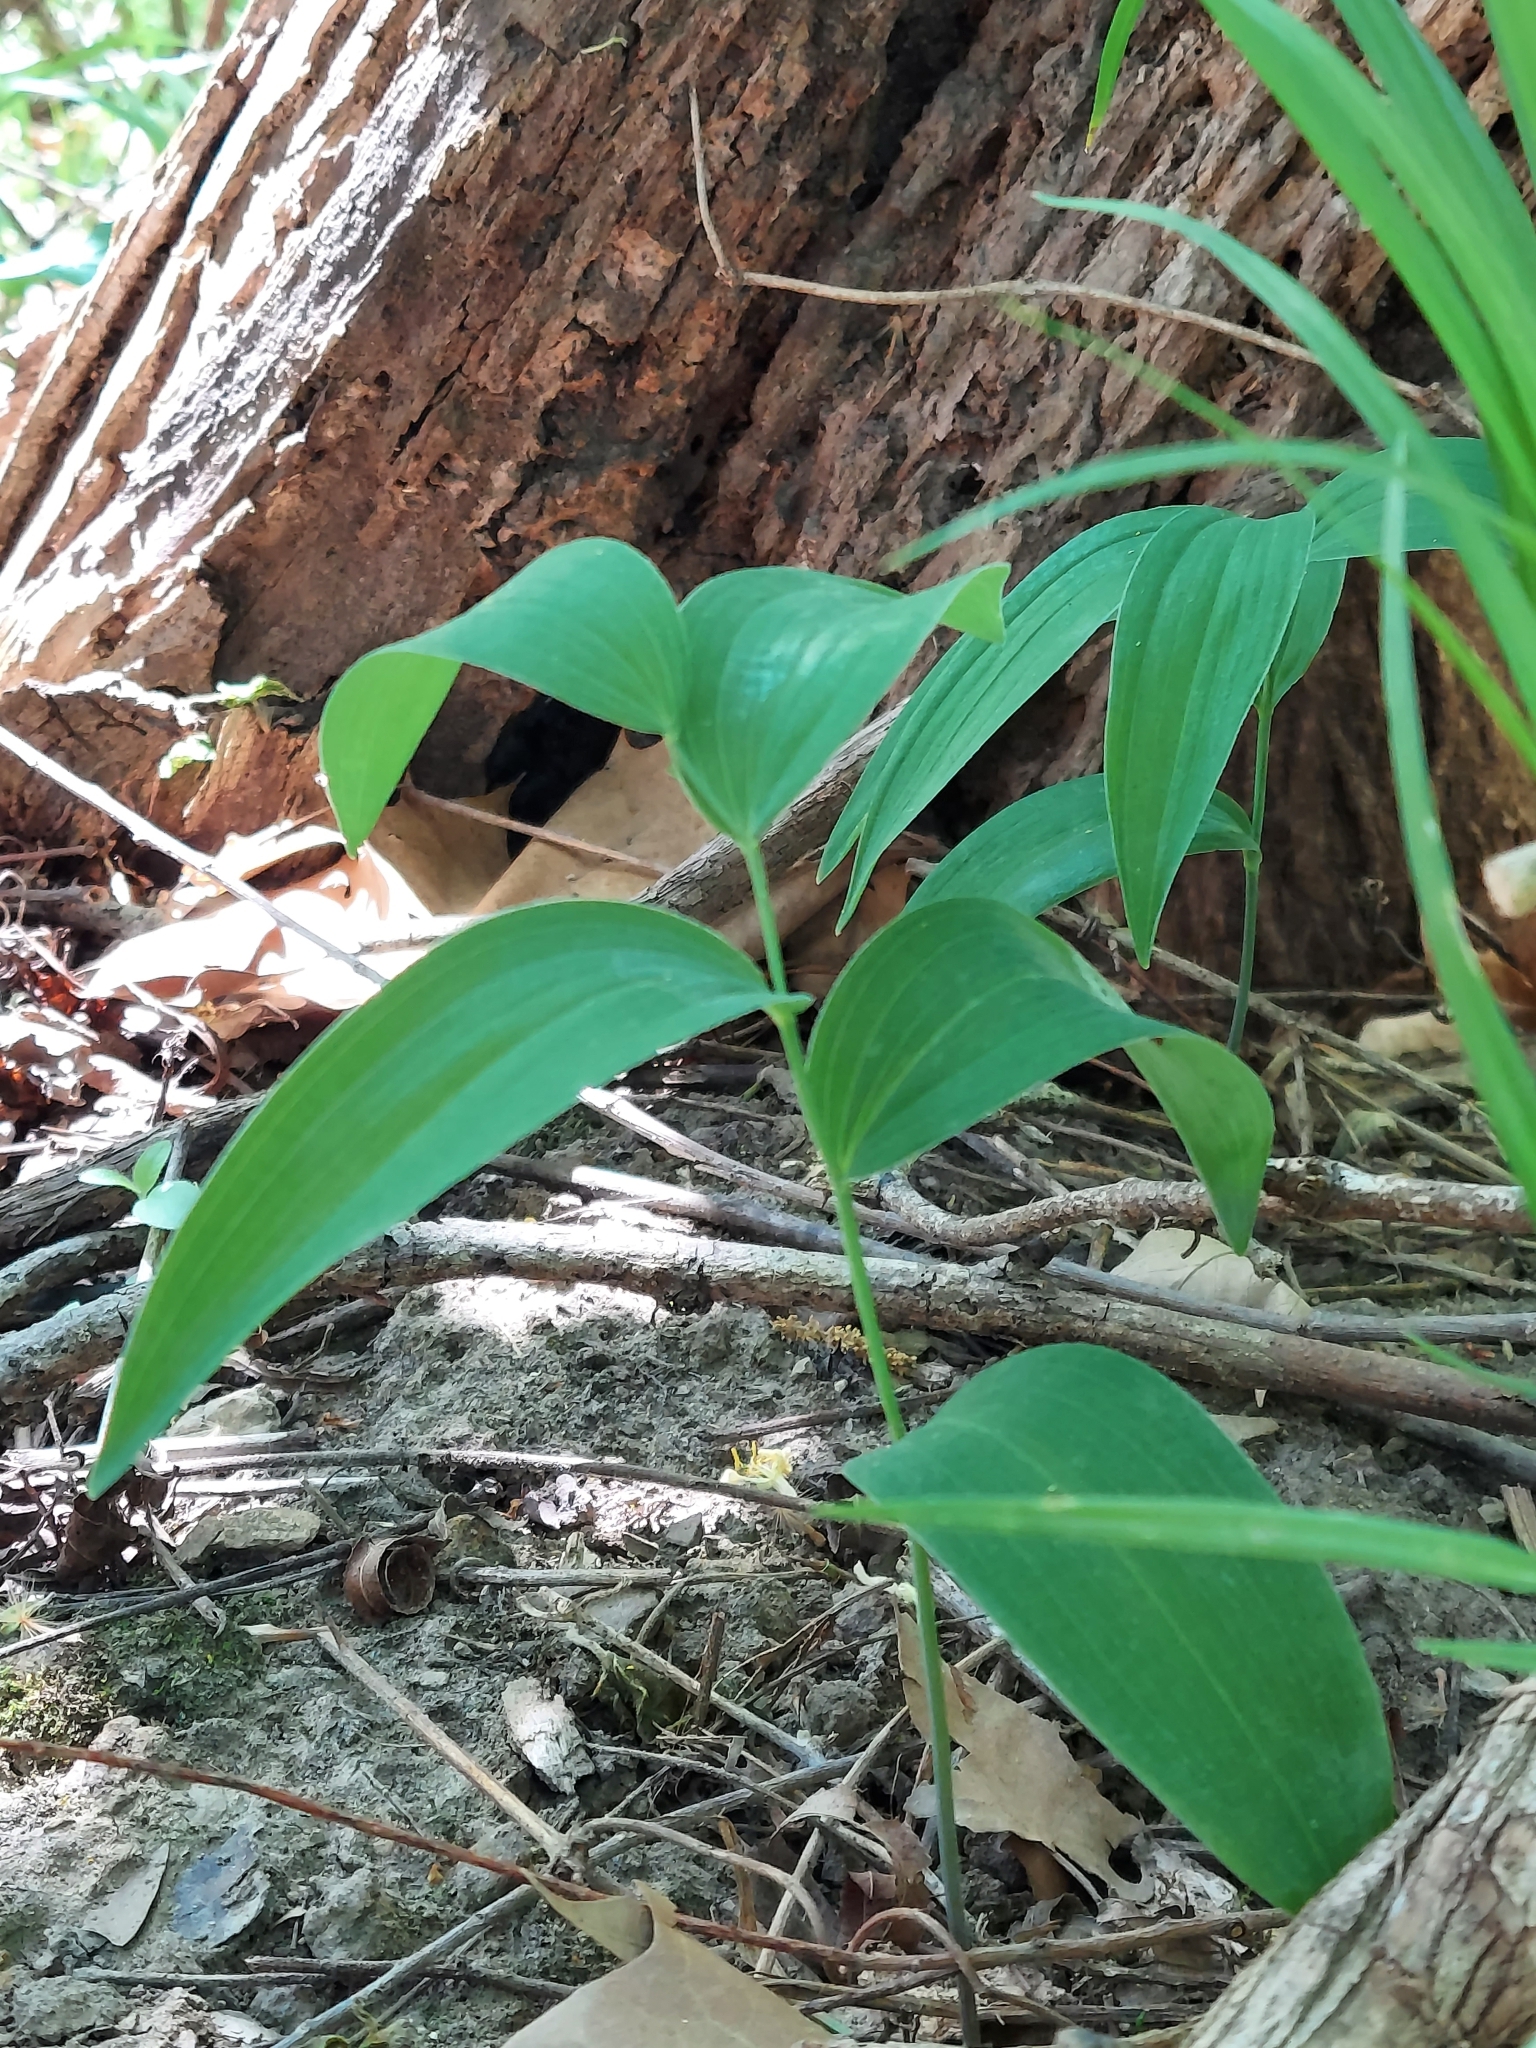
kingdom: Plantae
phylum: Tracheophyta
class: Liliopsida
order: Asparagales
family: Asparagaceae
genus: Polygonatum
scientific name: Polygonatum biflorum
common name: American solomon's-seal
